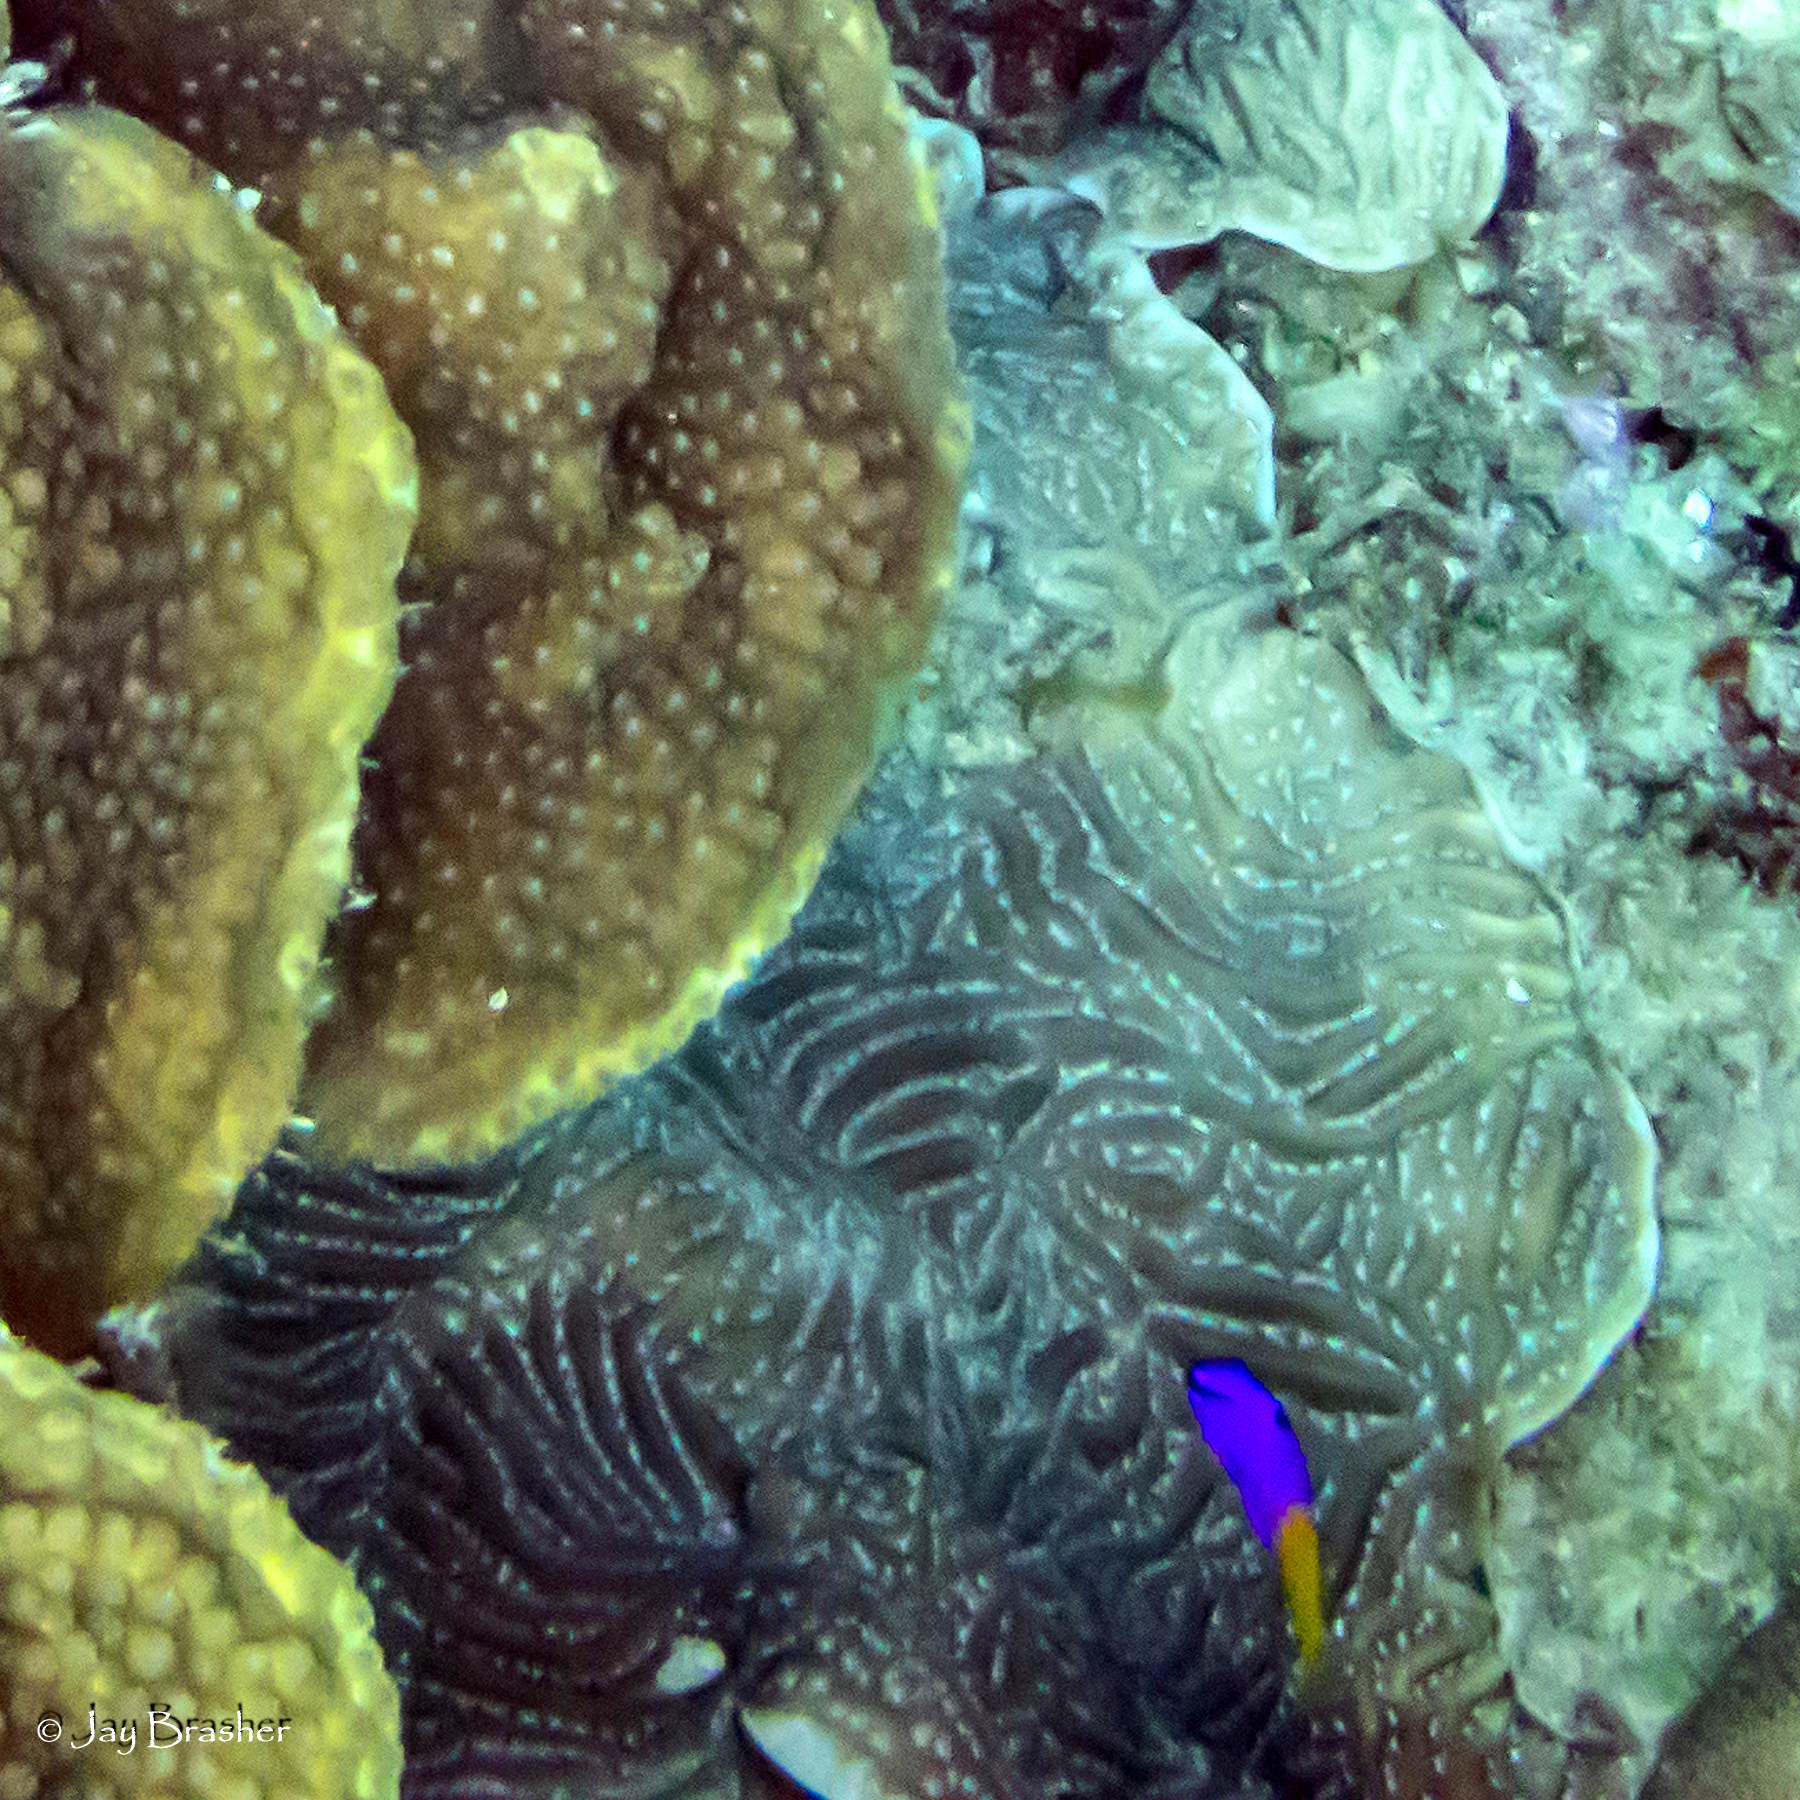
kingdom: Animalia
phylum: Cnidaria
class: Anthozoa
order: Scleractinia
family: Agariciidae
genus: Agaricia
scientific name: Agaricia lamarcki
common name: Lamarck's sheet coral
